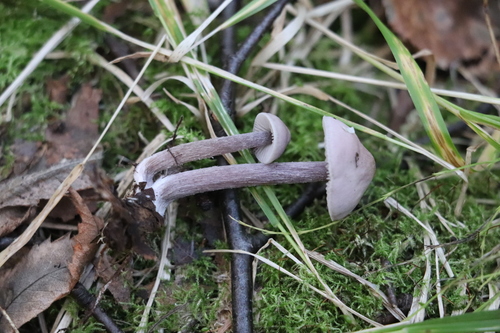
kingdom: Fungi
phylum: Basidiomycota
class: Agaricomycetes
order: Agaricales
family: Mycenaceae
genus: Mycena
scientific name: Mycena pura
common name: Lilac bonnet
